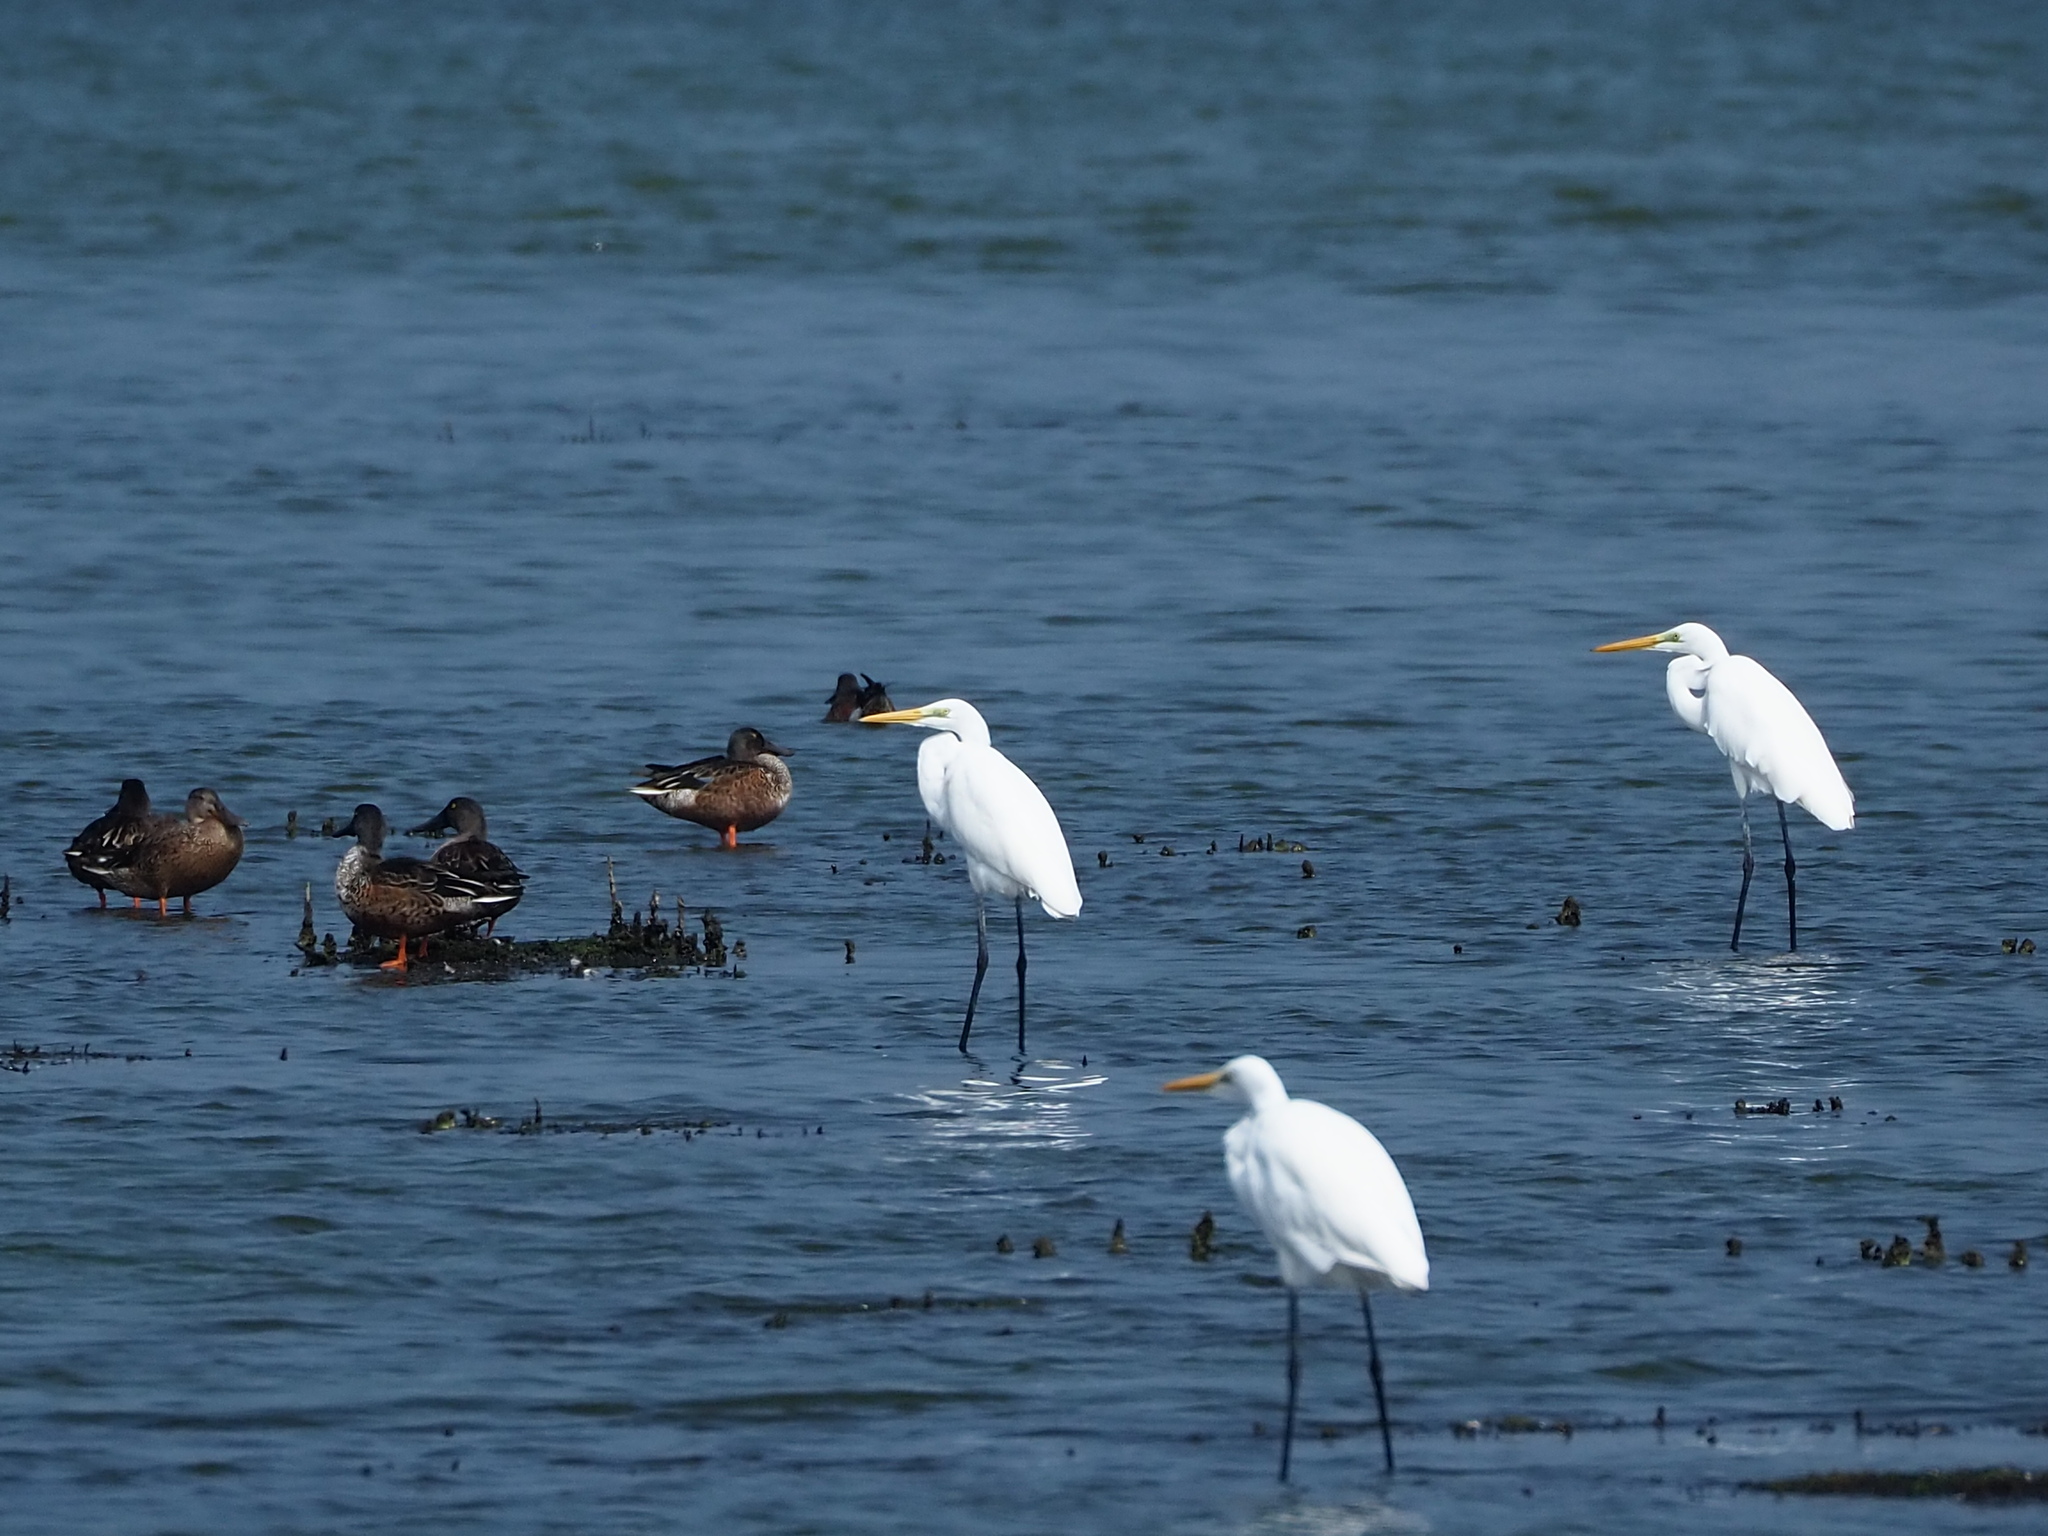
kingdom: Animalia
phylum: Chordata
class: Aves
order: Pelecaniformes
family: Ardeidae
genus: Ardea
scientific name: Ardea alba
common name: Great egret
